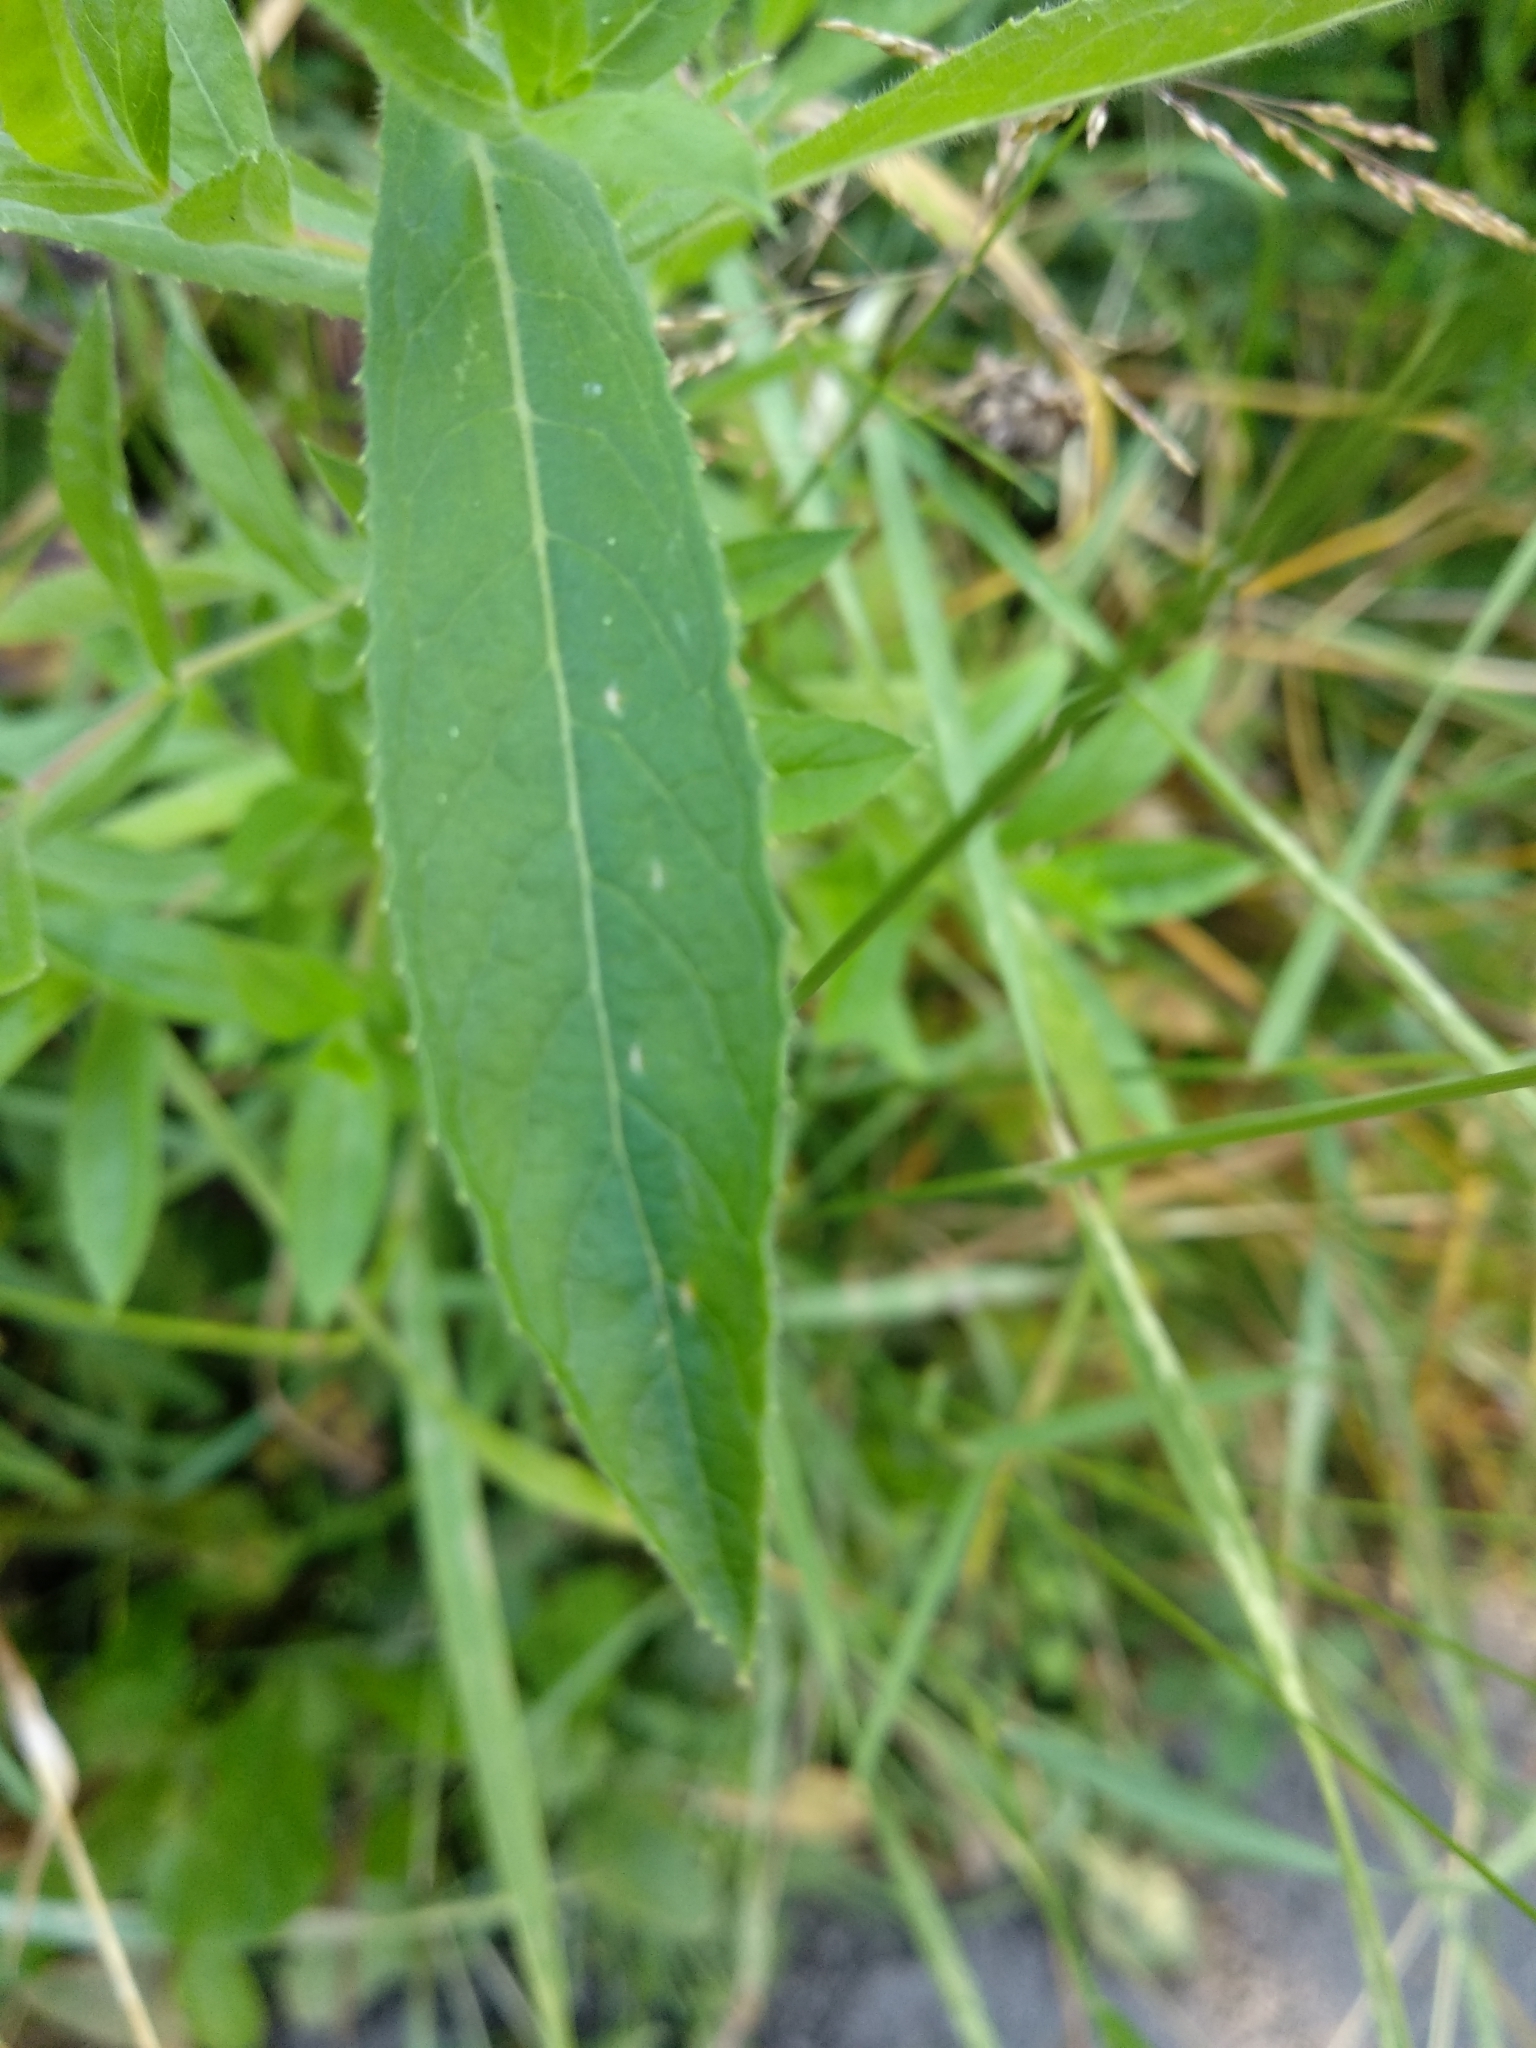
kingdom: Plantae
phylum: Tracheophyta
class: Magnoliopsida
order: Myrtales
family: Onagraceae
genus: Epilobium
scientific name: Epilobium hirsutum
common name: Great willowherb
